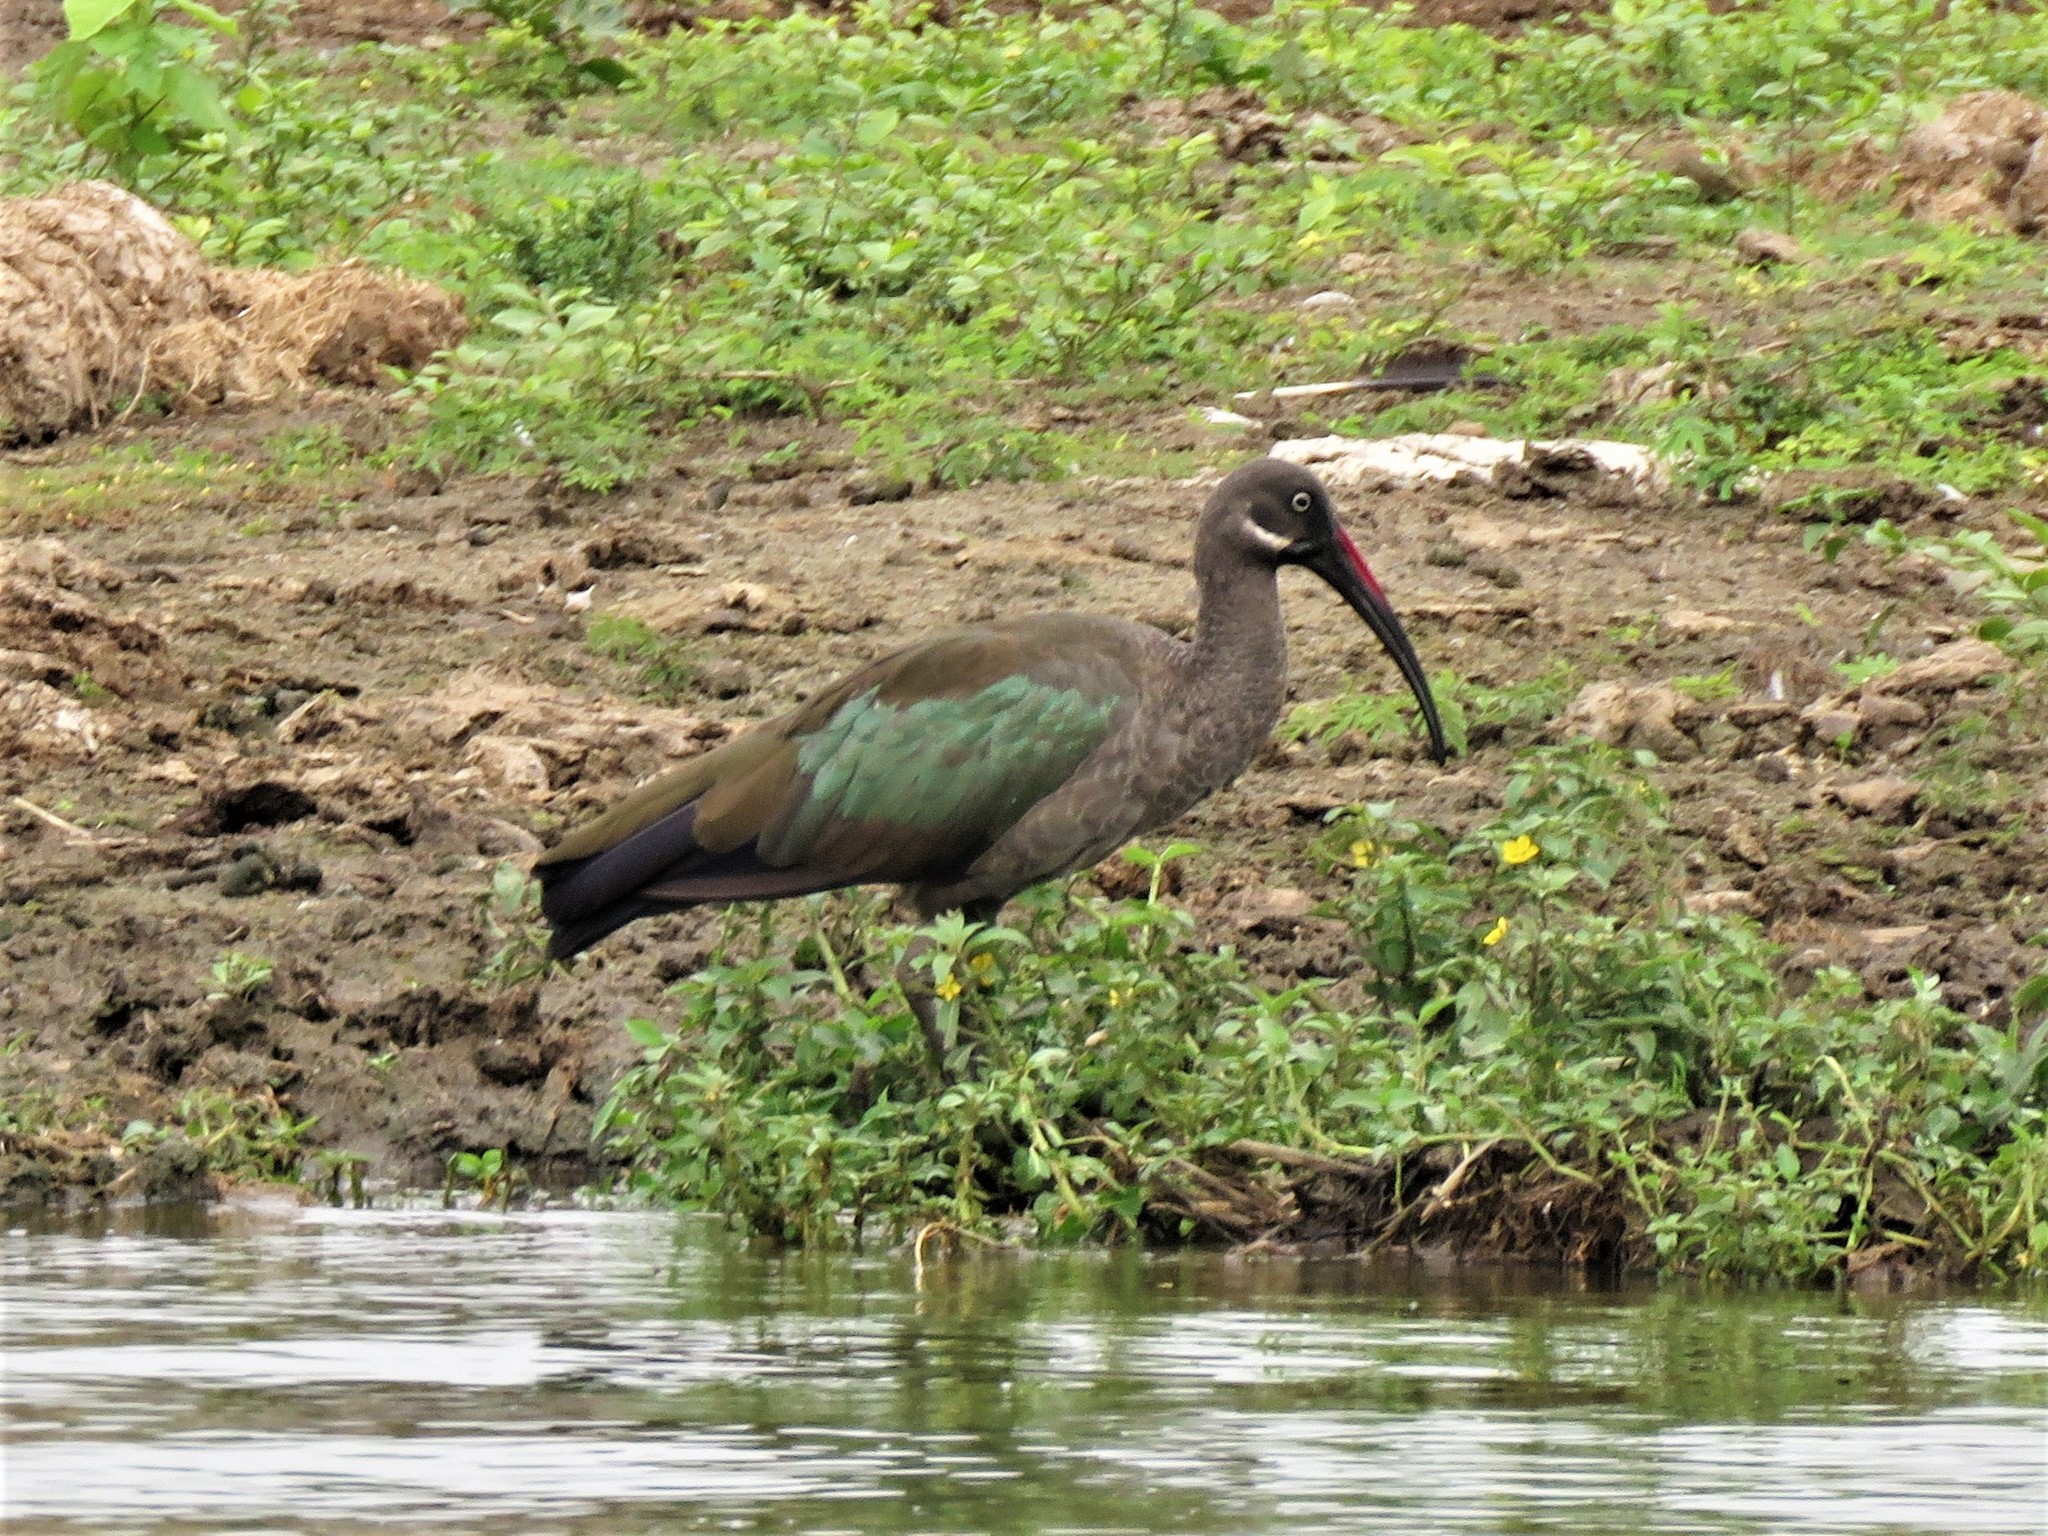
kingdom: Animalia
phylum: Chordata
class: Aves
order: Pelecaniformes
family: Threskiornithidae
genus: Bostrychia
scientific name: Bostrychia hagedash
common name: Hadada ibis
